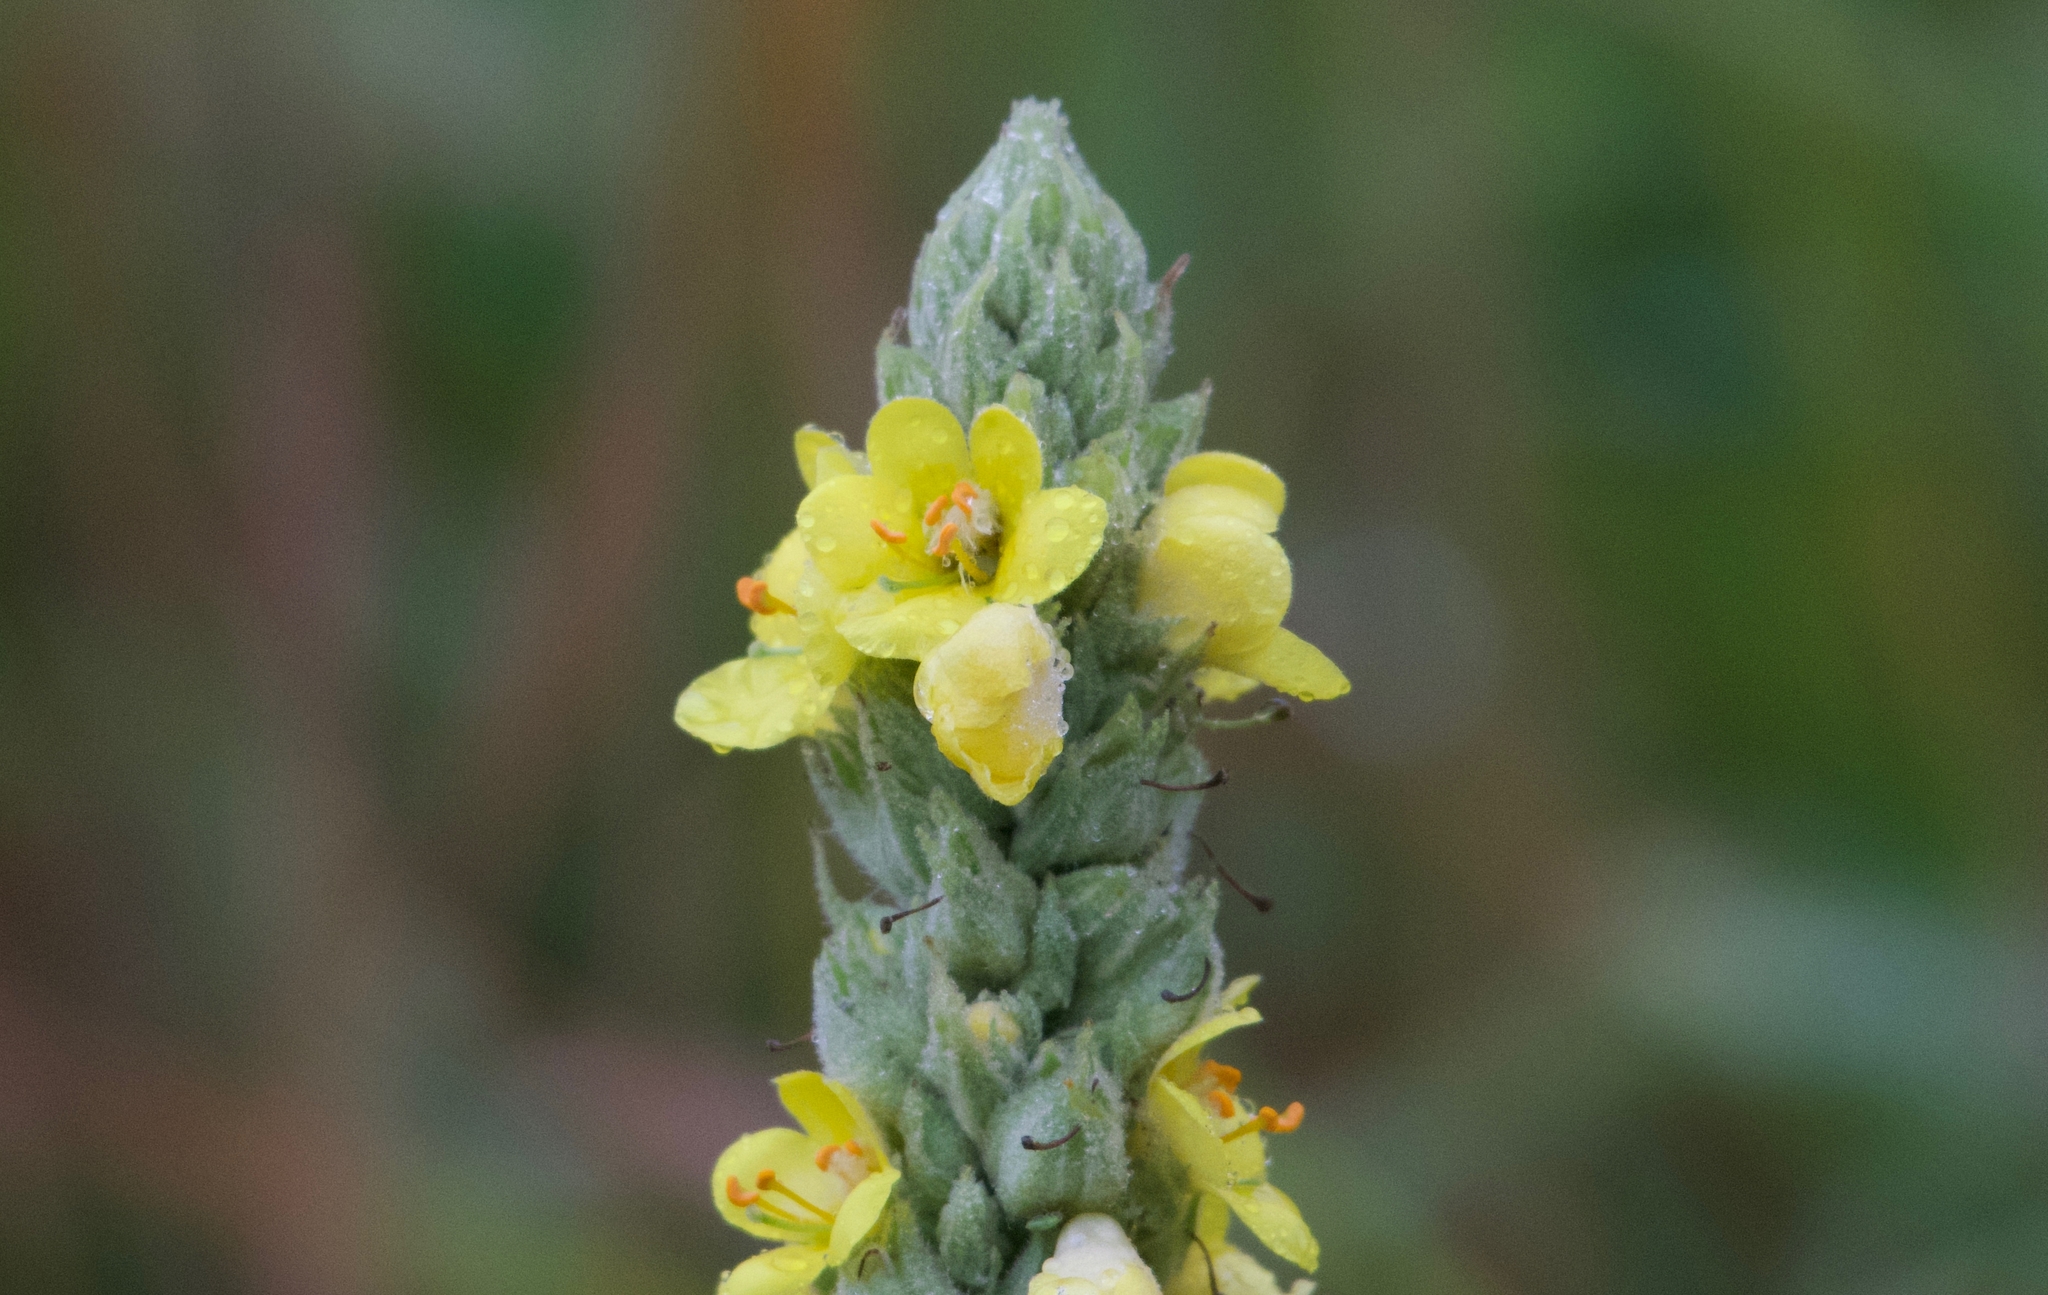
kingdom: Plantae
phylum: Tracheophyta
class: Magnoliopsida
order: Lamiales
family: Scrophulariaceae
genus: Verbascum
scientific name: Verbascum thapsus
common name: Common mullein
